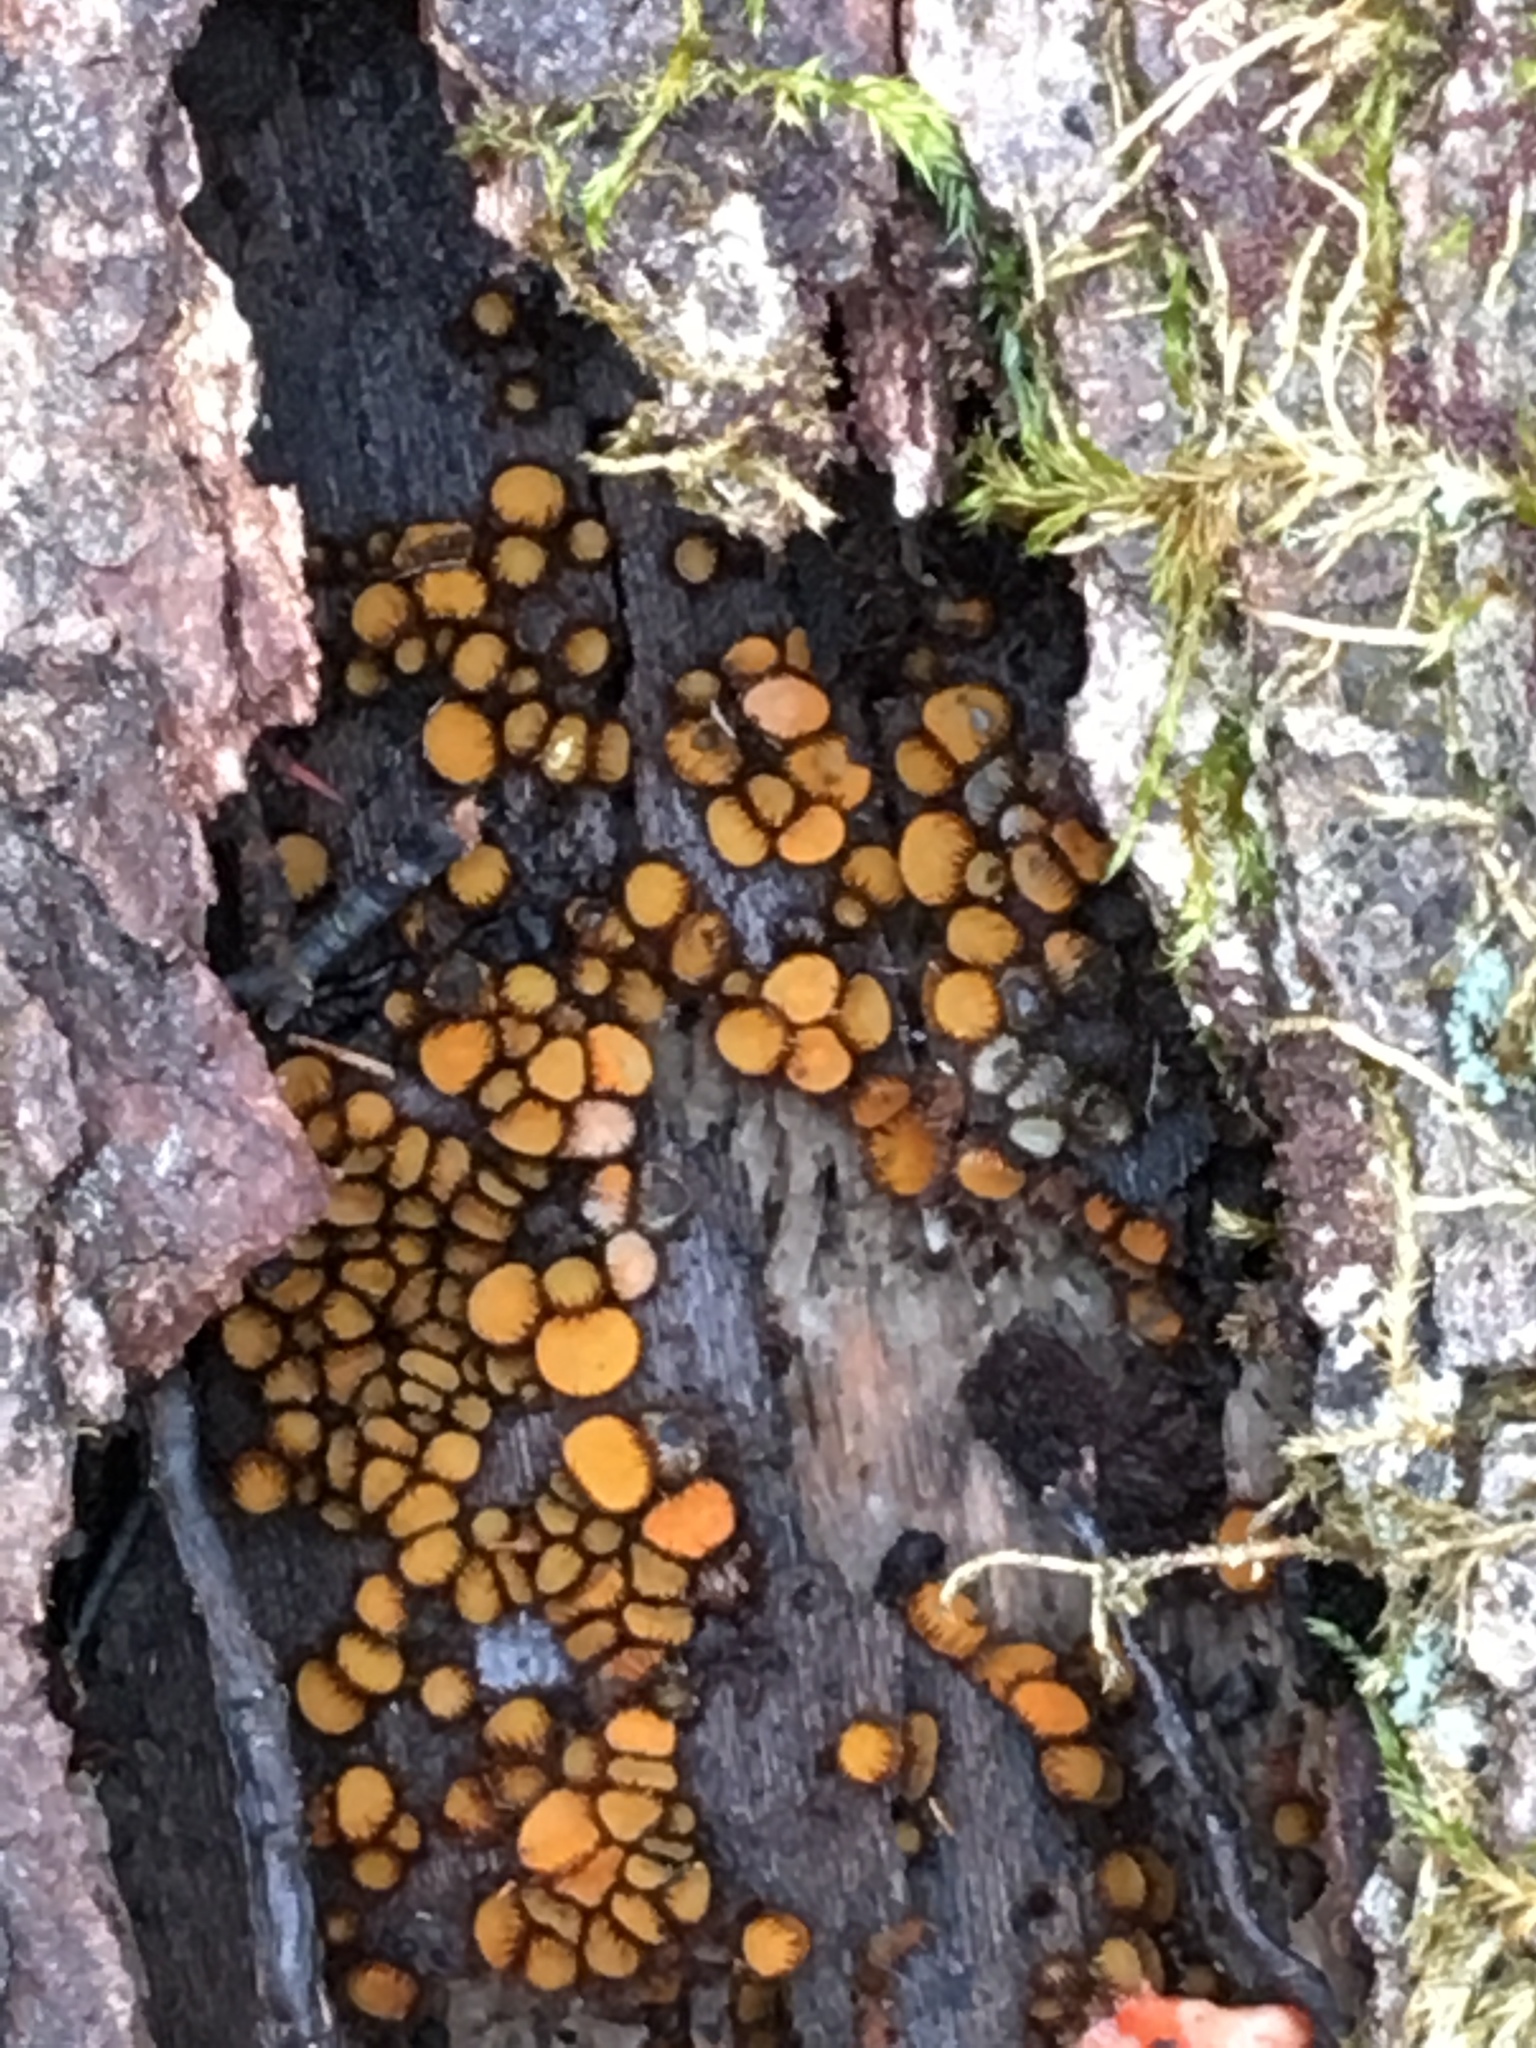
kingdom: Fungi
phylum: Ascomycota
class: Pezizomycetes
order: Pezizales
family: Pyronemataceae
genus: Scutellinia
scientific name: Scutellinia setosa
